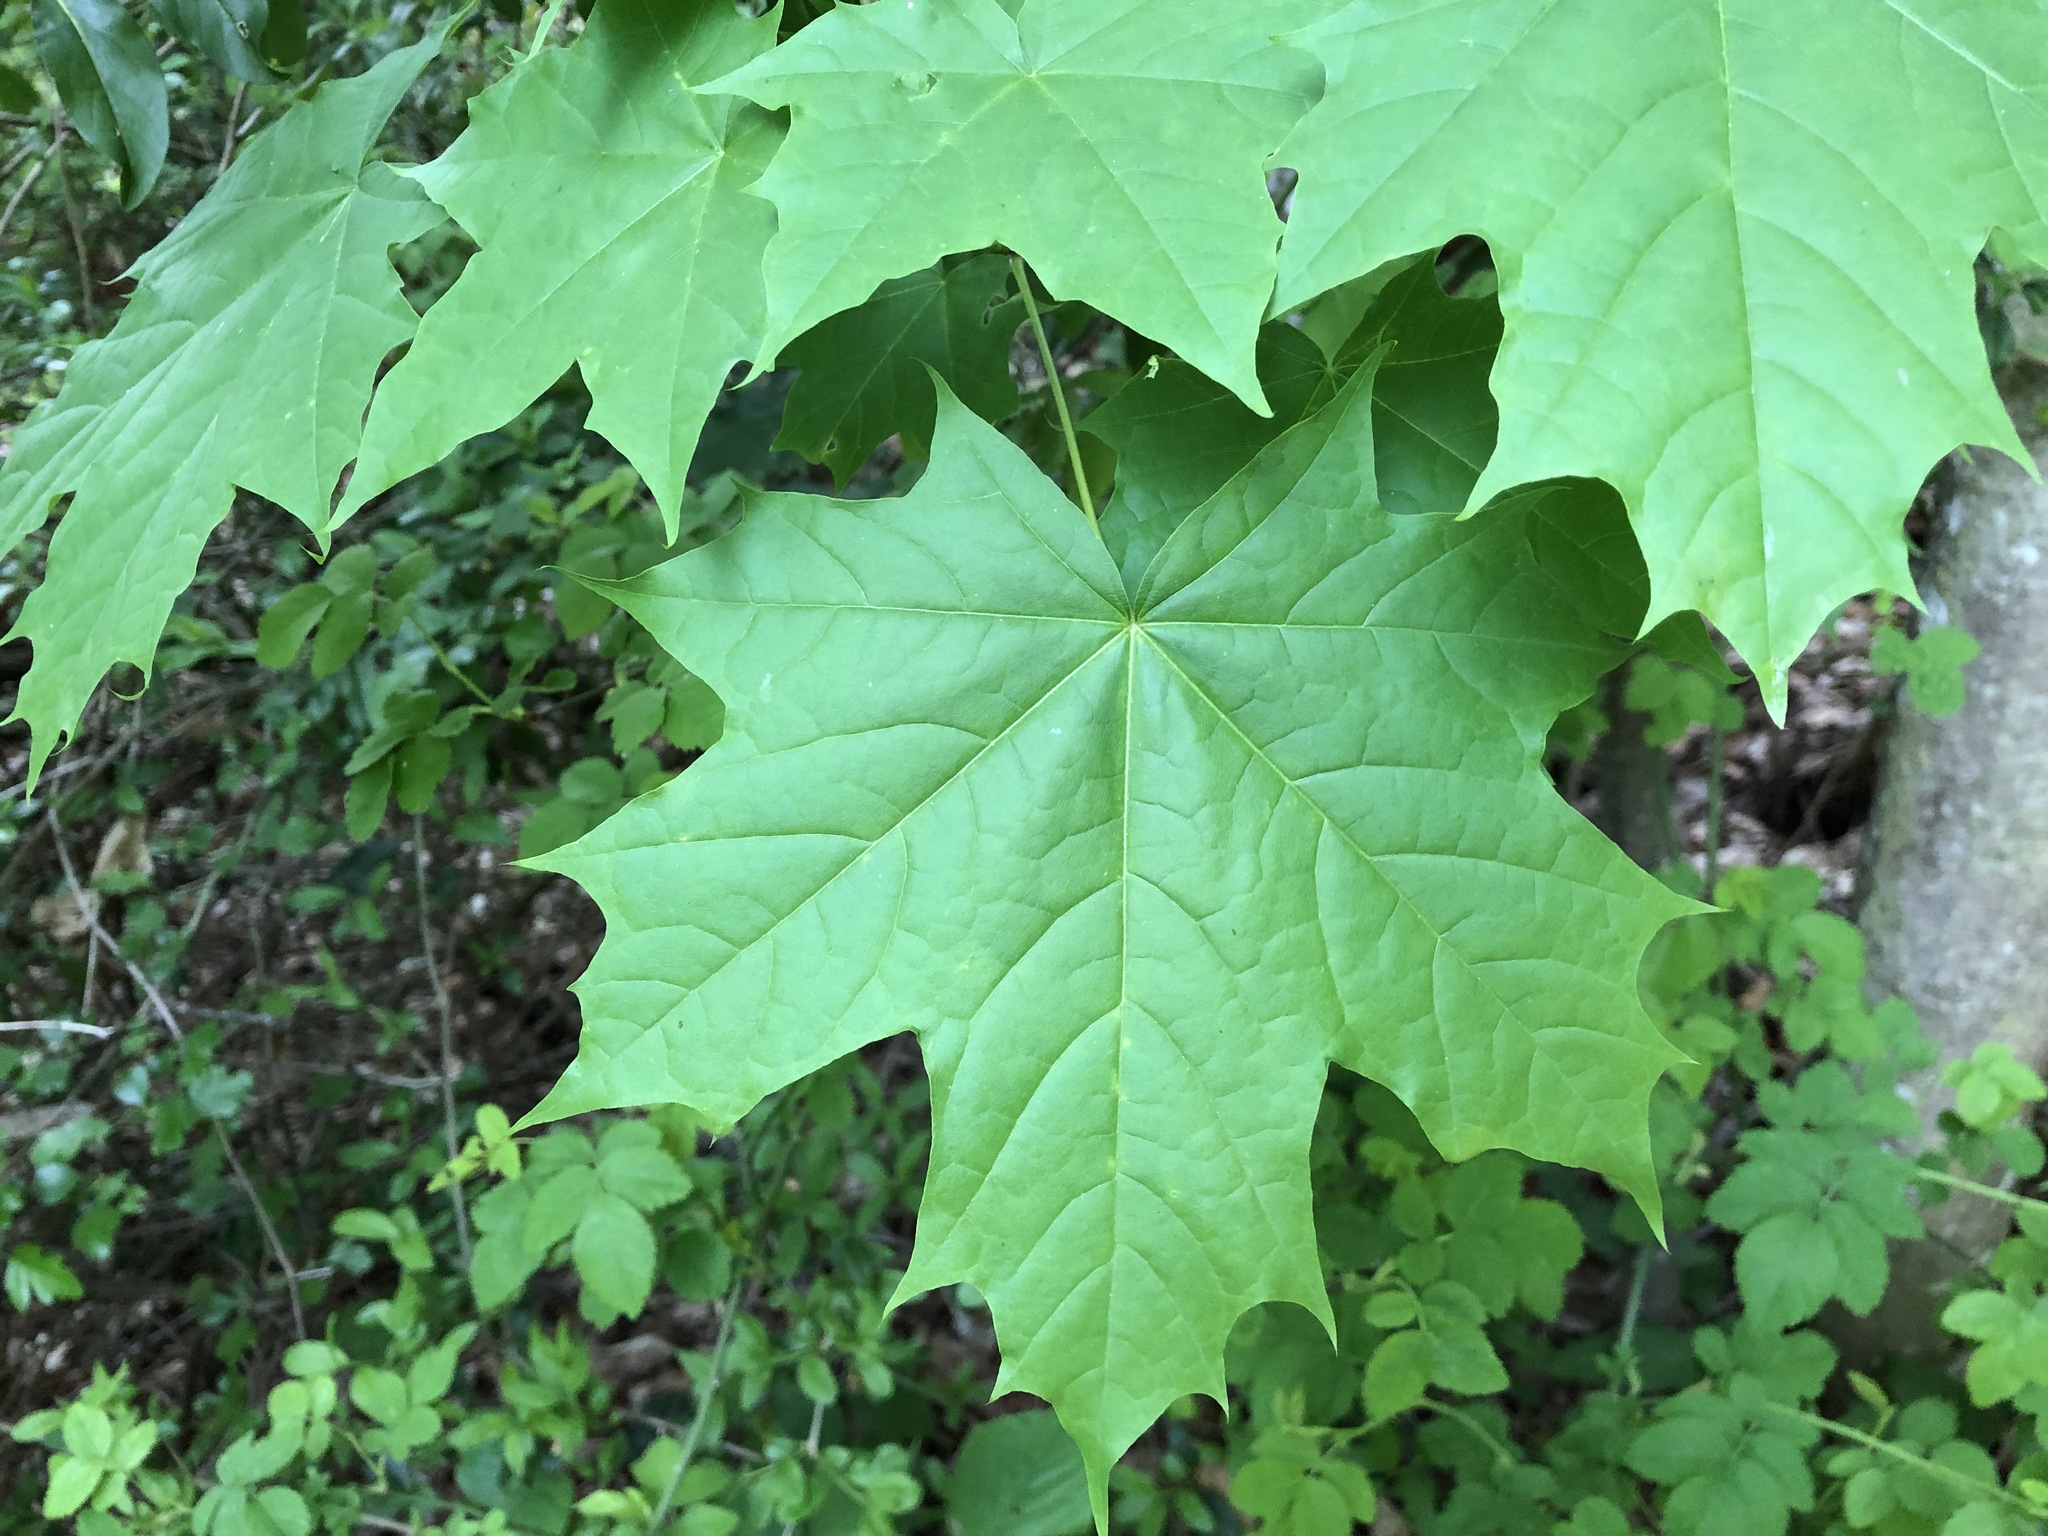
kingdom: Plantae
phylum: Tracheophyta
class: Magnoliopsida
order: Sapindales
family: Sapindaceae
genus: Acer
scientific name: Acer platanoides
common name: Norway maple
